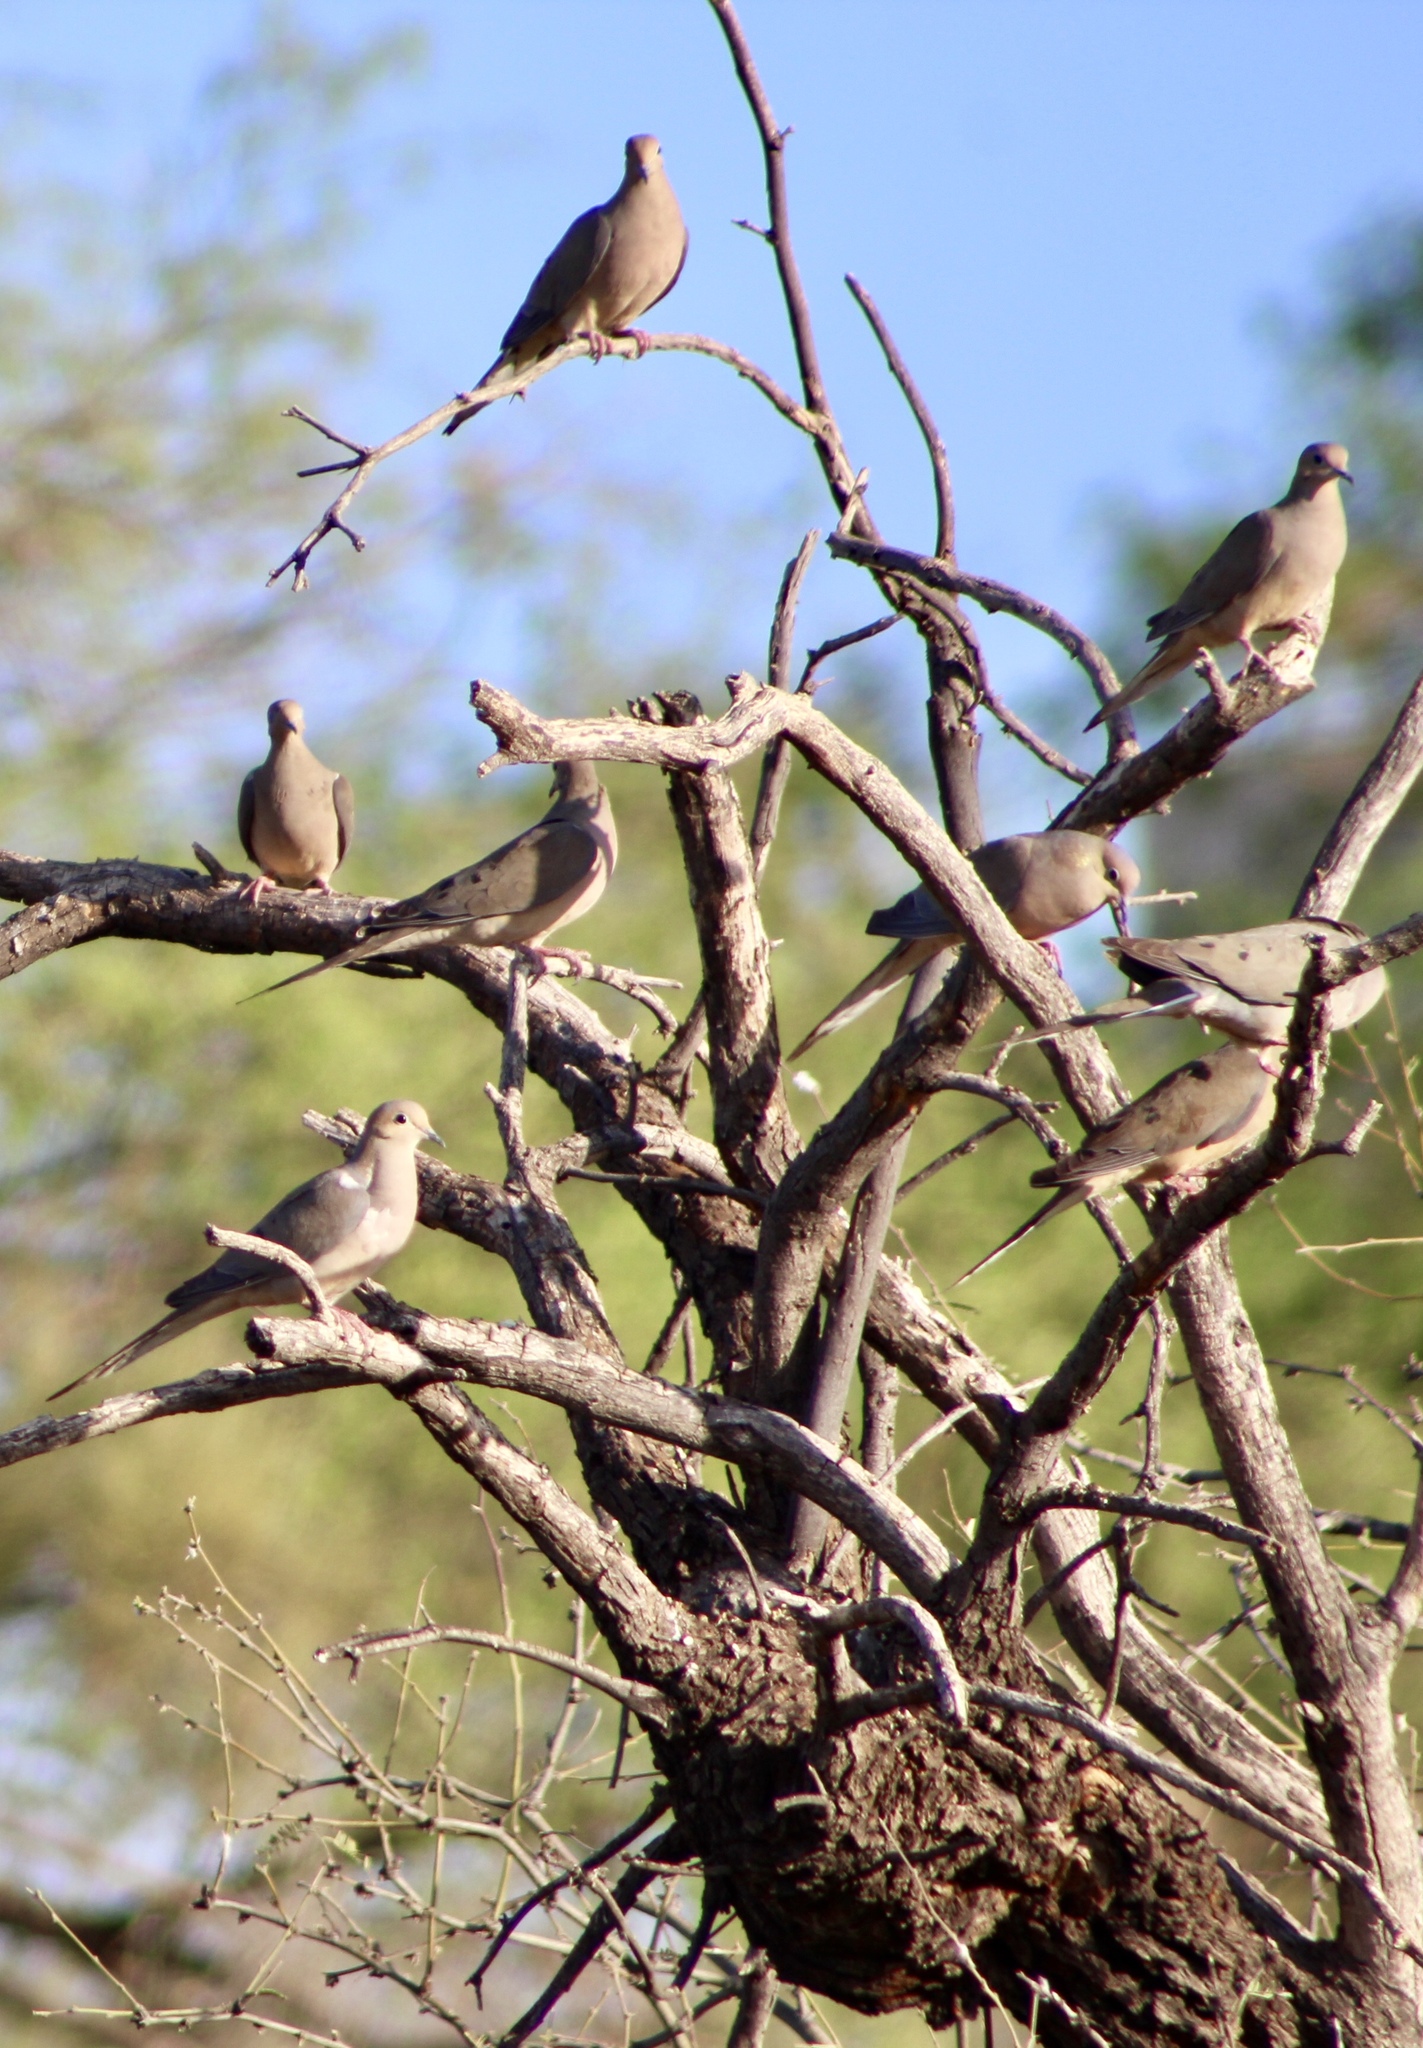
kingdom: Animalia
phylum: Chordata
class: Aves
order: Columbiformes
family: Columbidae
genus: Zenaida
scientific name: Zenaida macroura
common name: Mourning dove
